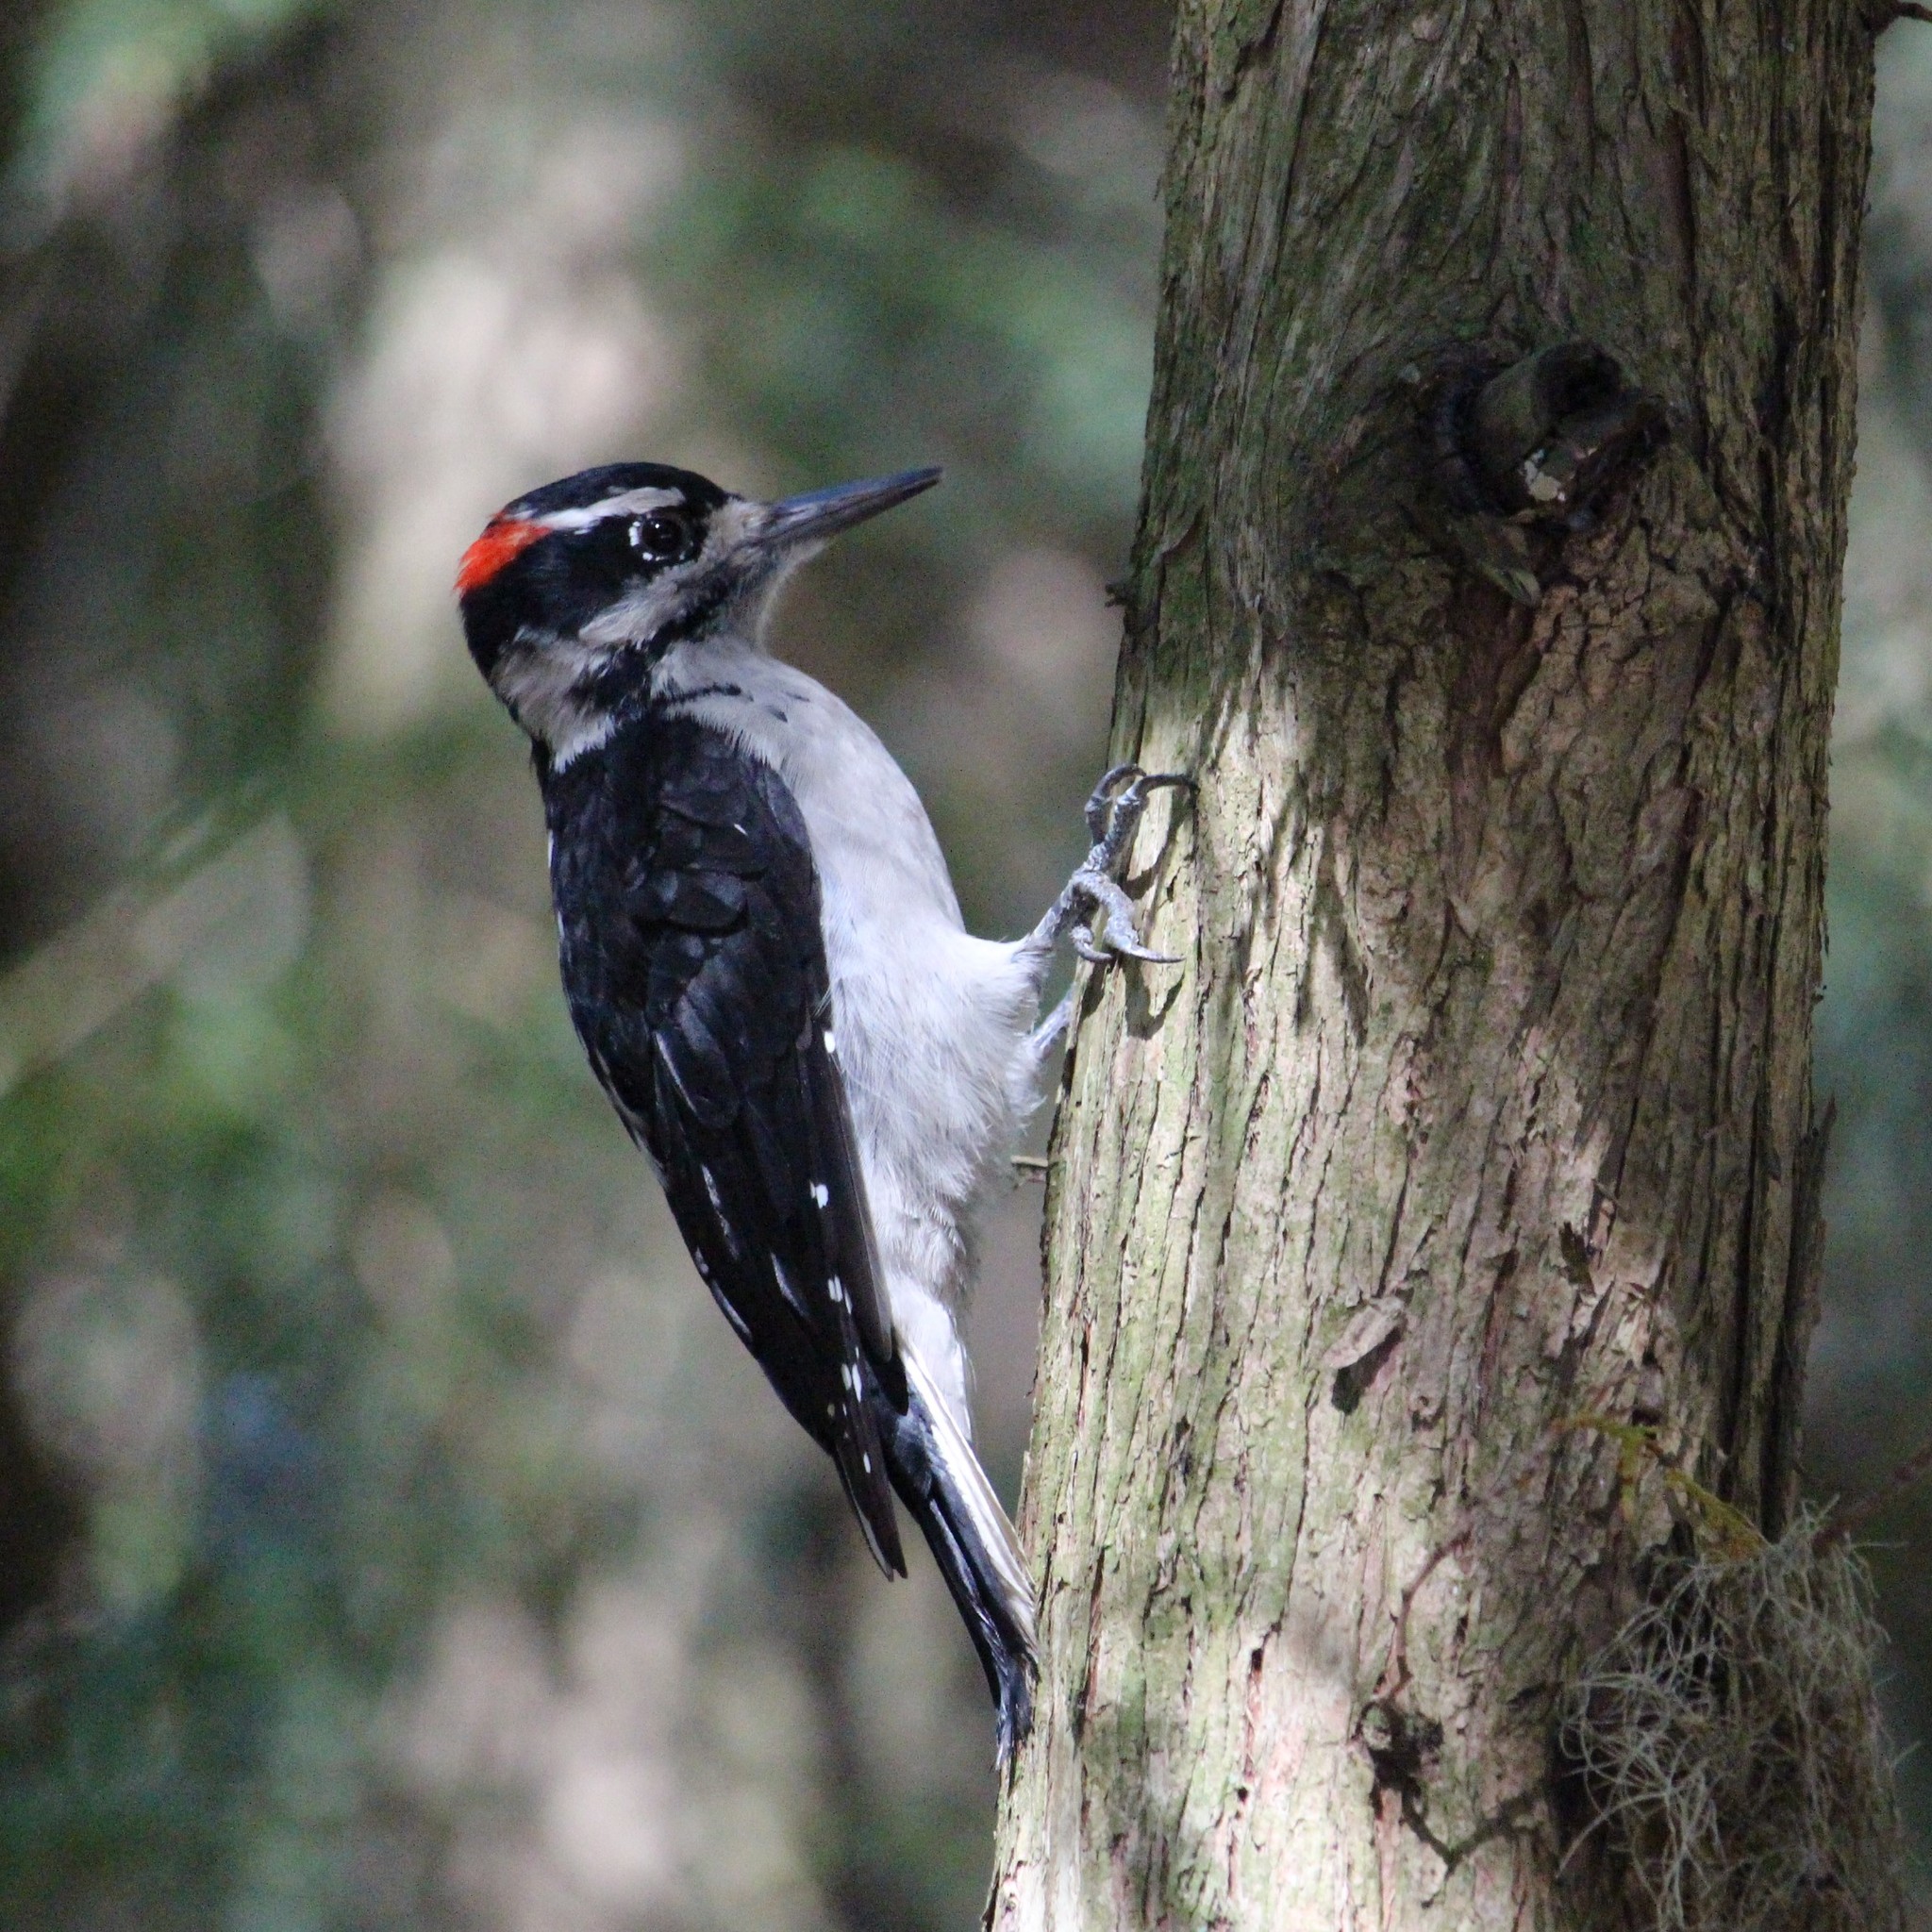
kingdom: Animalia
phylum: Chordata
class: Aves
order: Piciformes
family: Picidae
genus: Leuconotopicus
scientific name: Leuconotopicus villosus
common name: Hairy woodpecker
